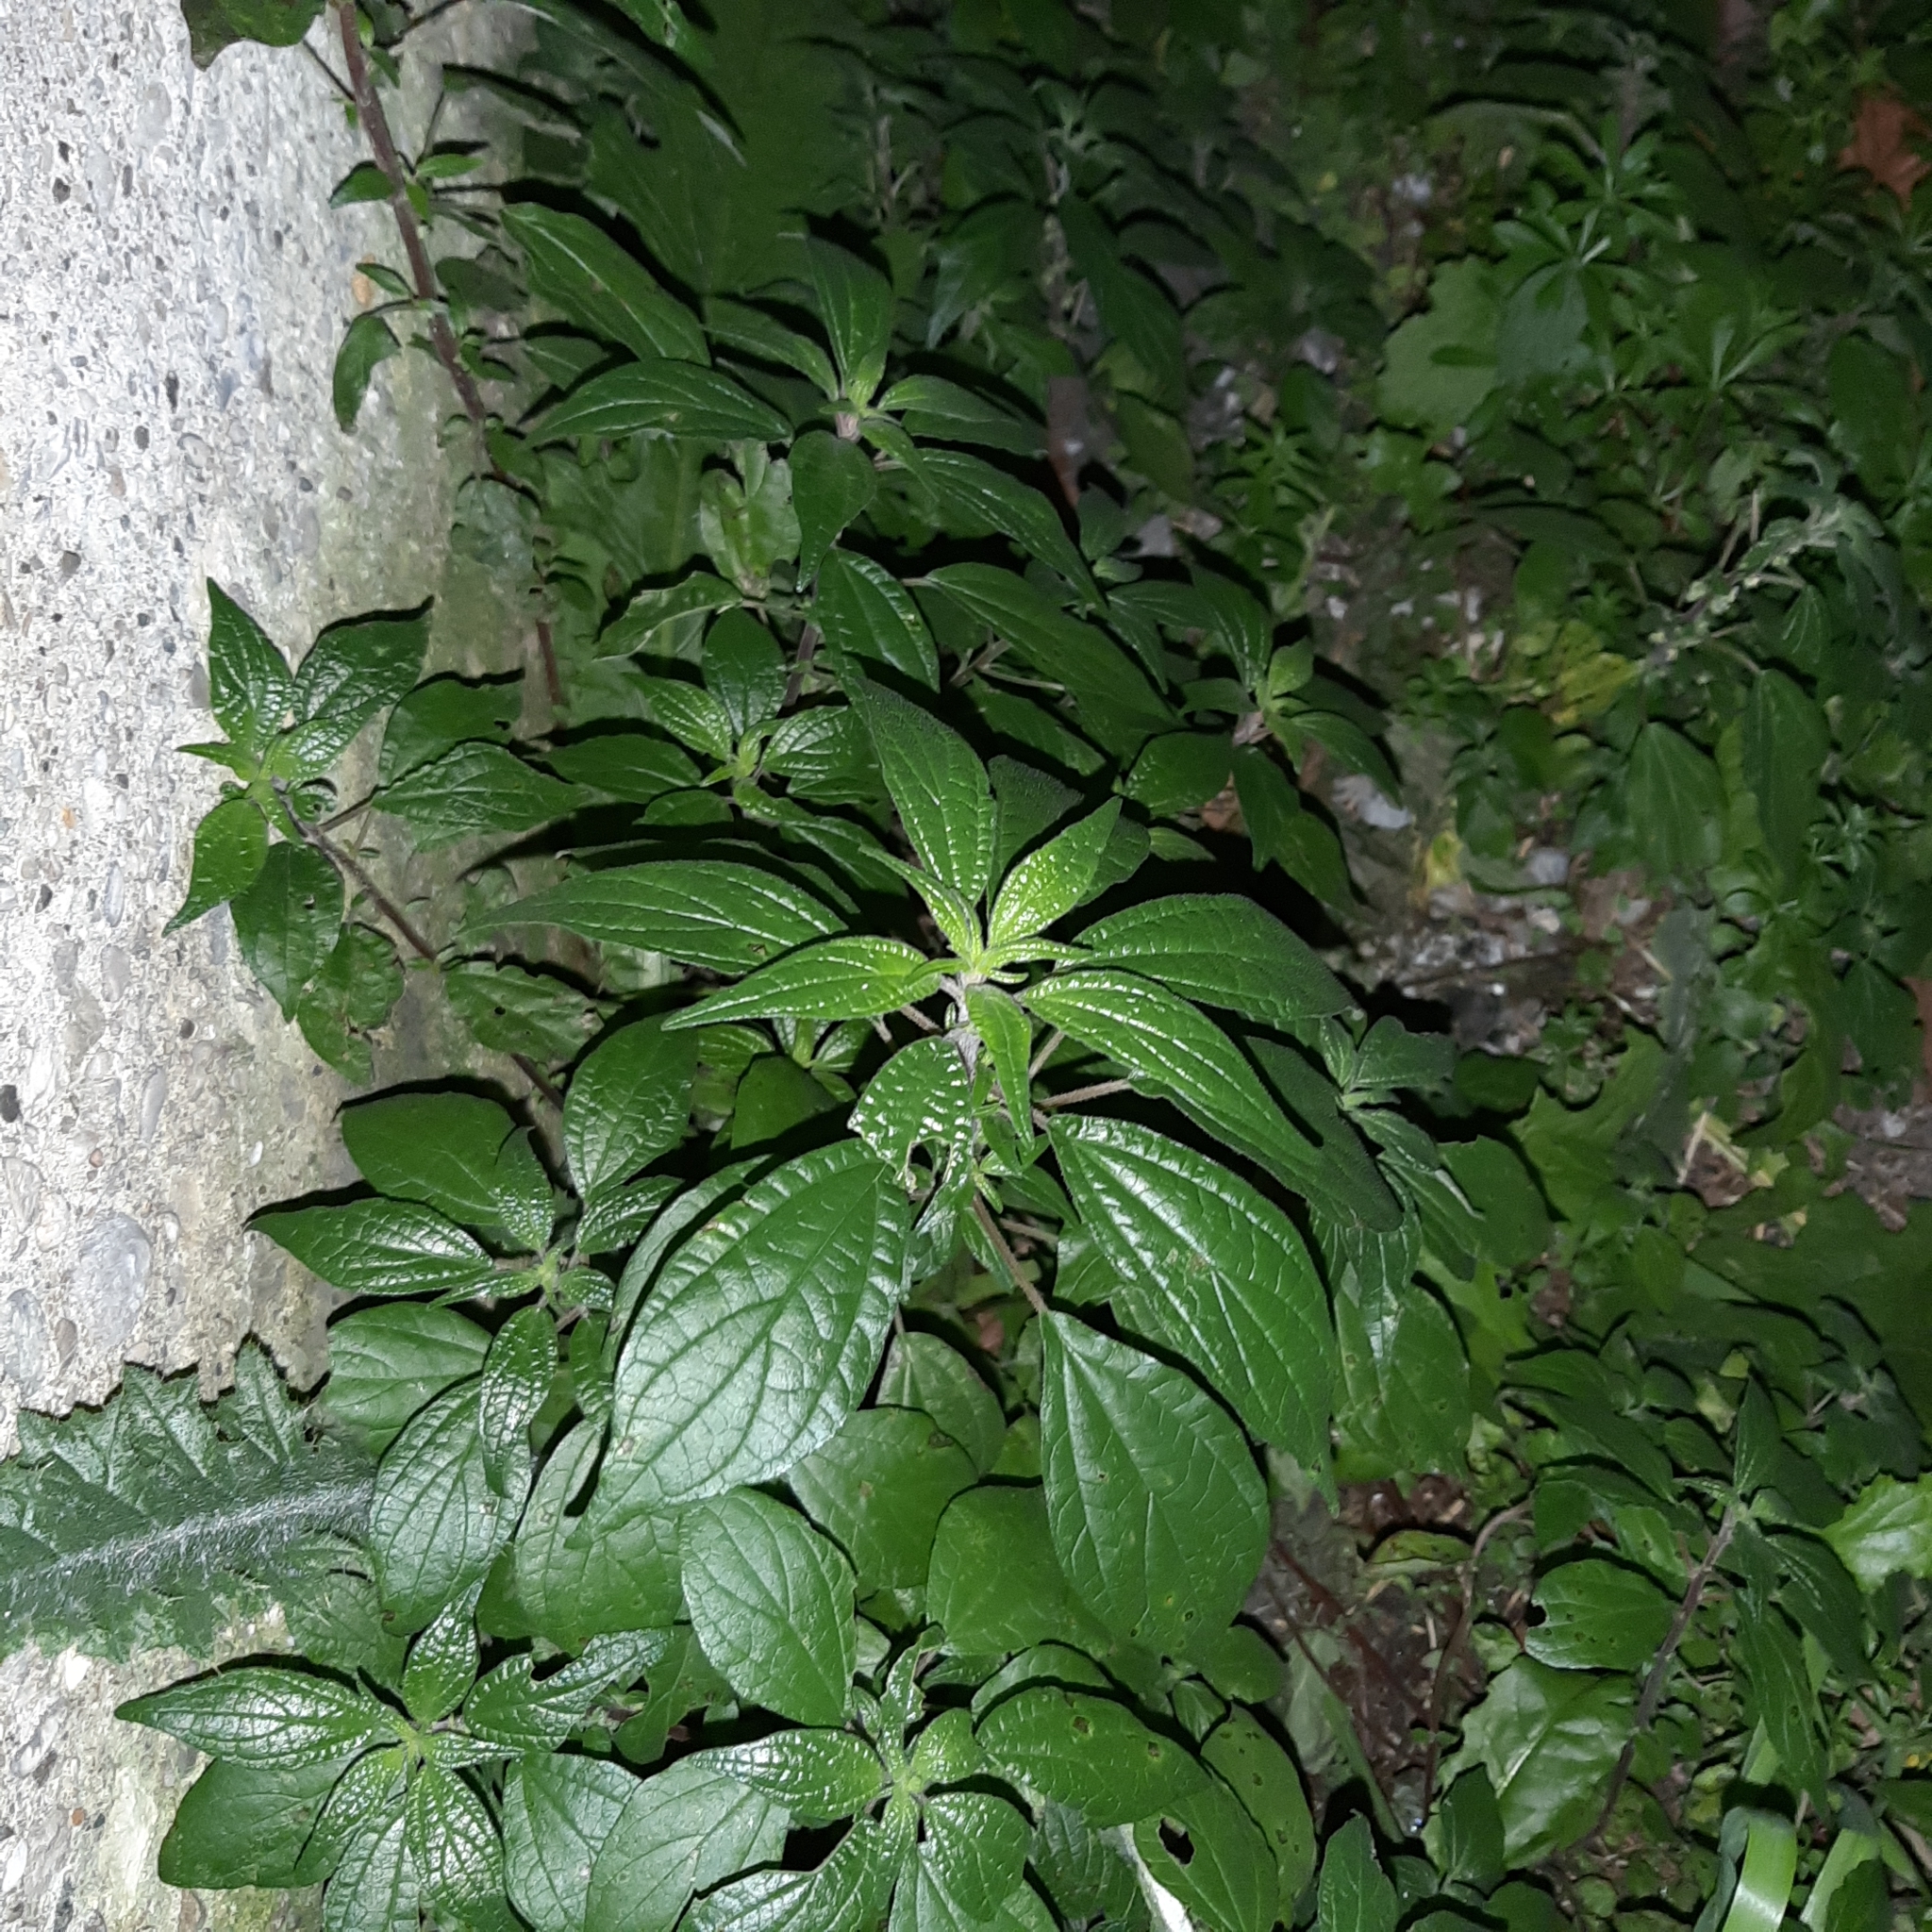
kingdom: Plantae
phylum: Tracheophyta
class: Magnoliopsida
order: Rosales
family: Urticaceae
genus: Parietaria
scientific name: Parietaria judaica
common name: Pellitory-of-the-wall
